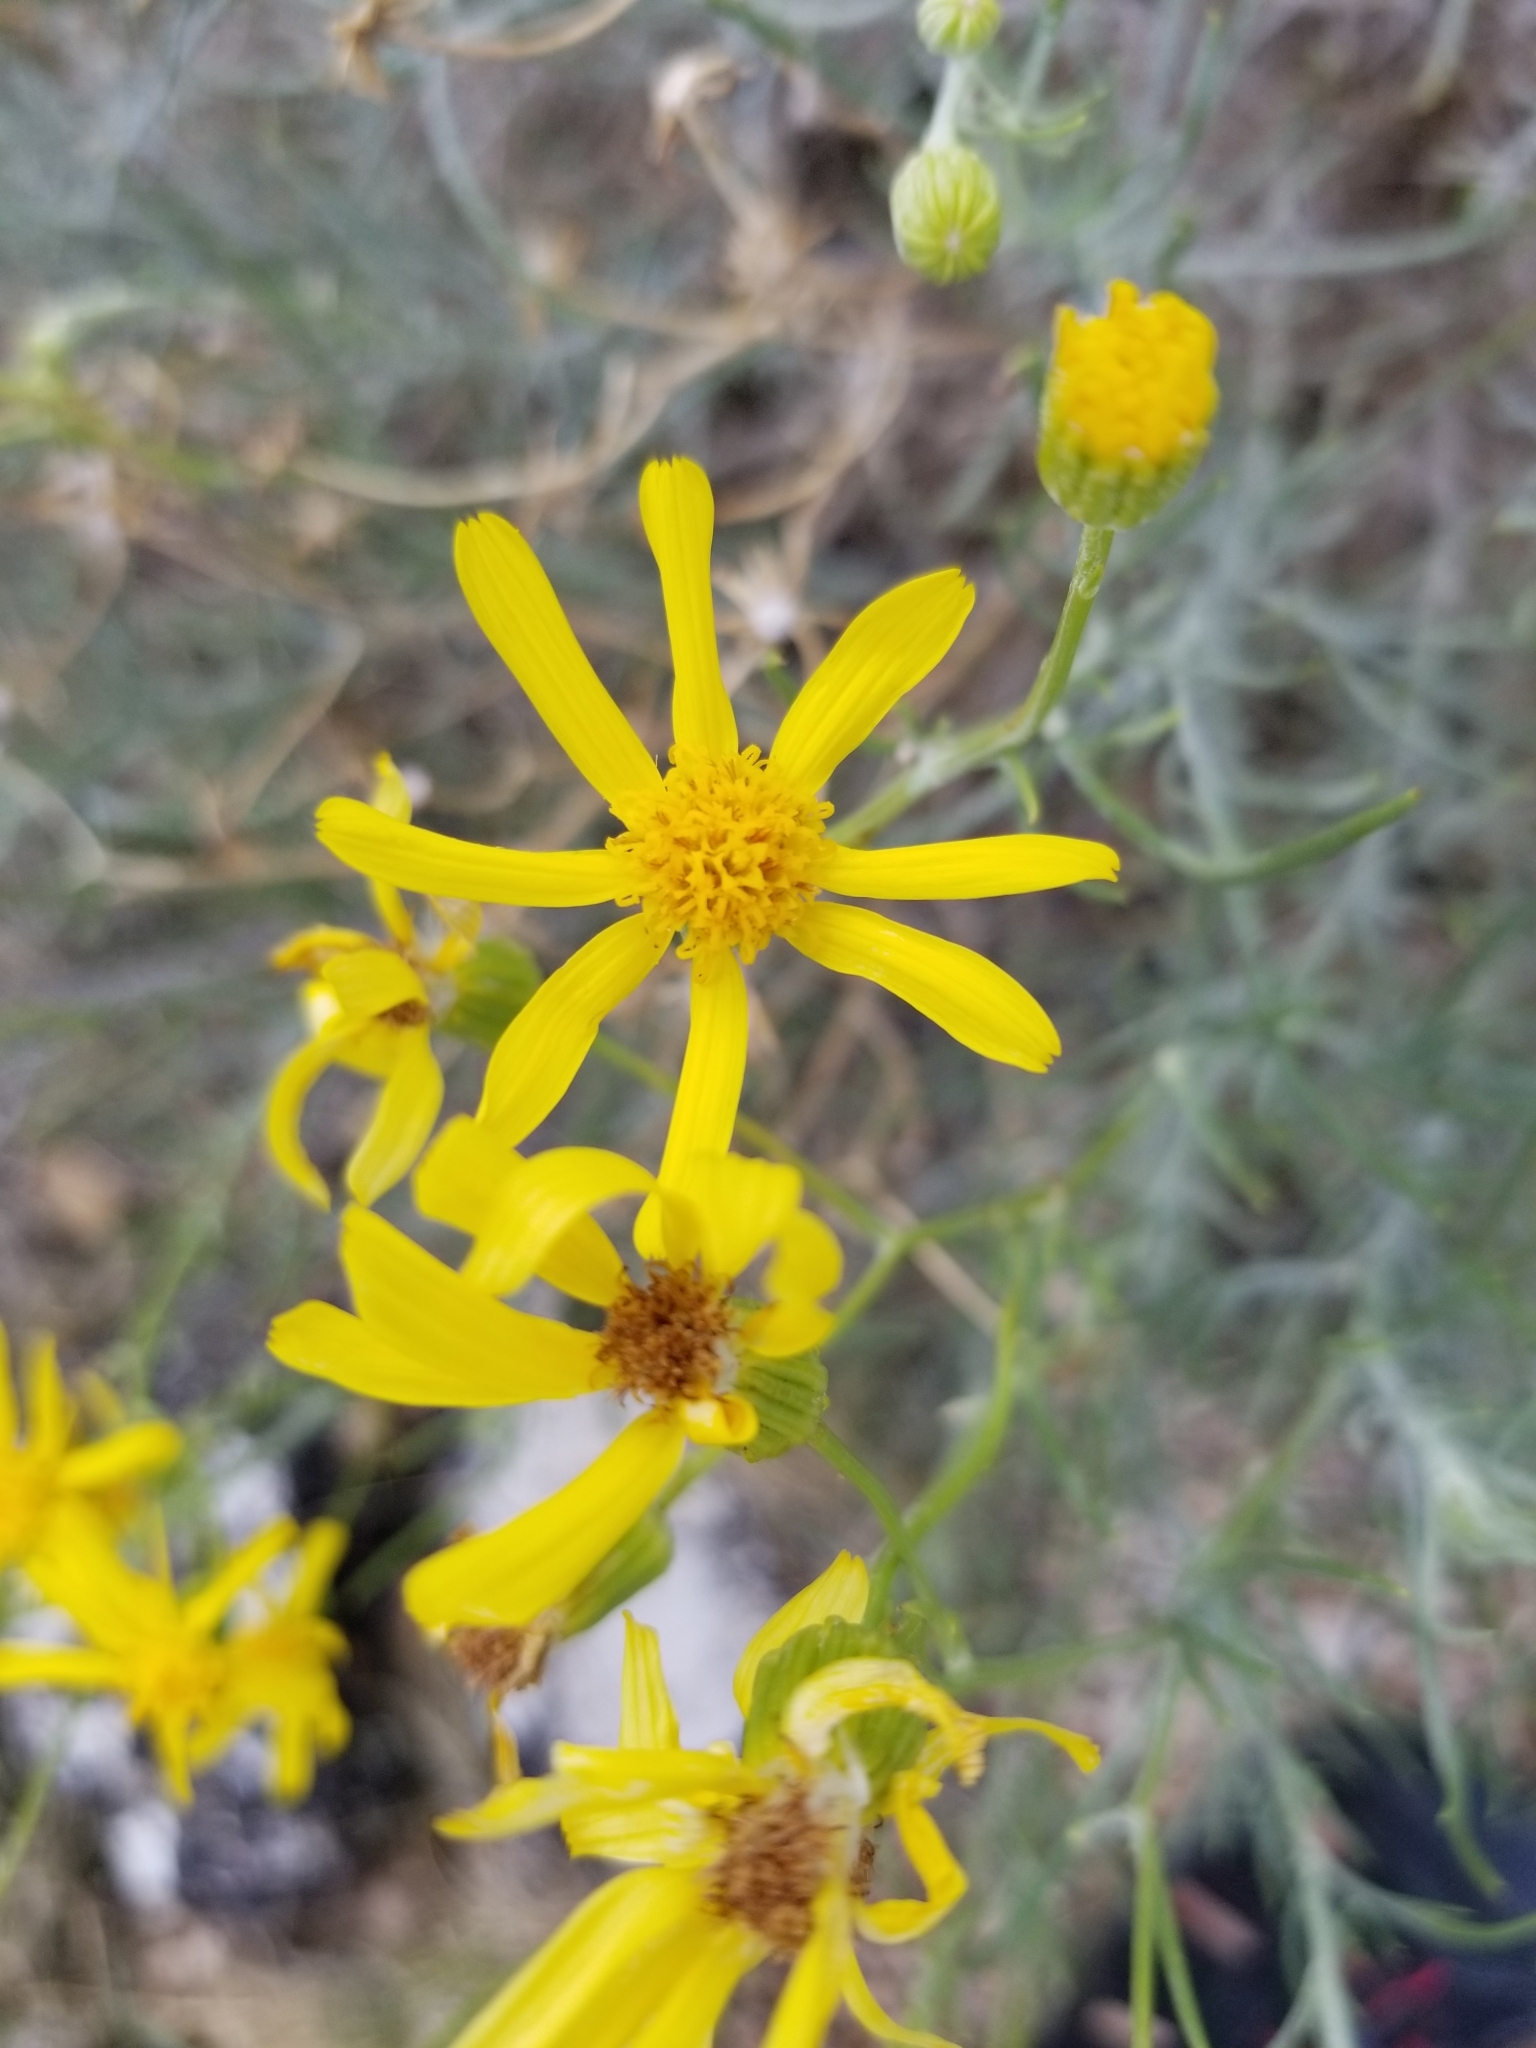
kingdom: Plantae
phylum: Tracheophyta
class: Magnoliopsida
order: Asterales
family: Asteraceae
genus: Senecio
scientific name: Senecio flaccidus
